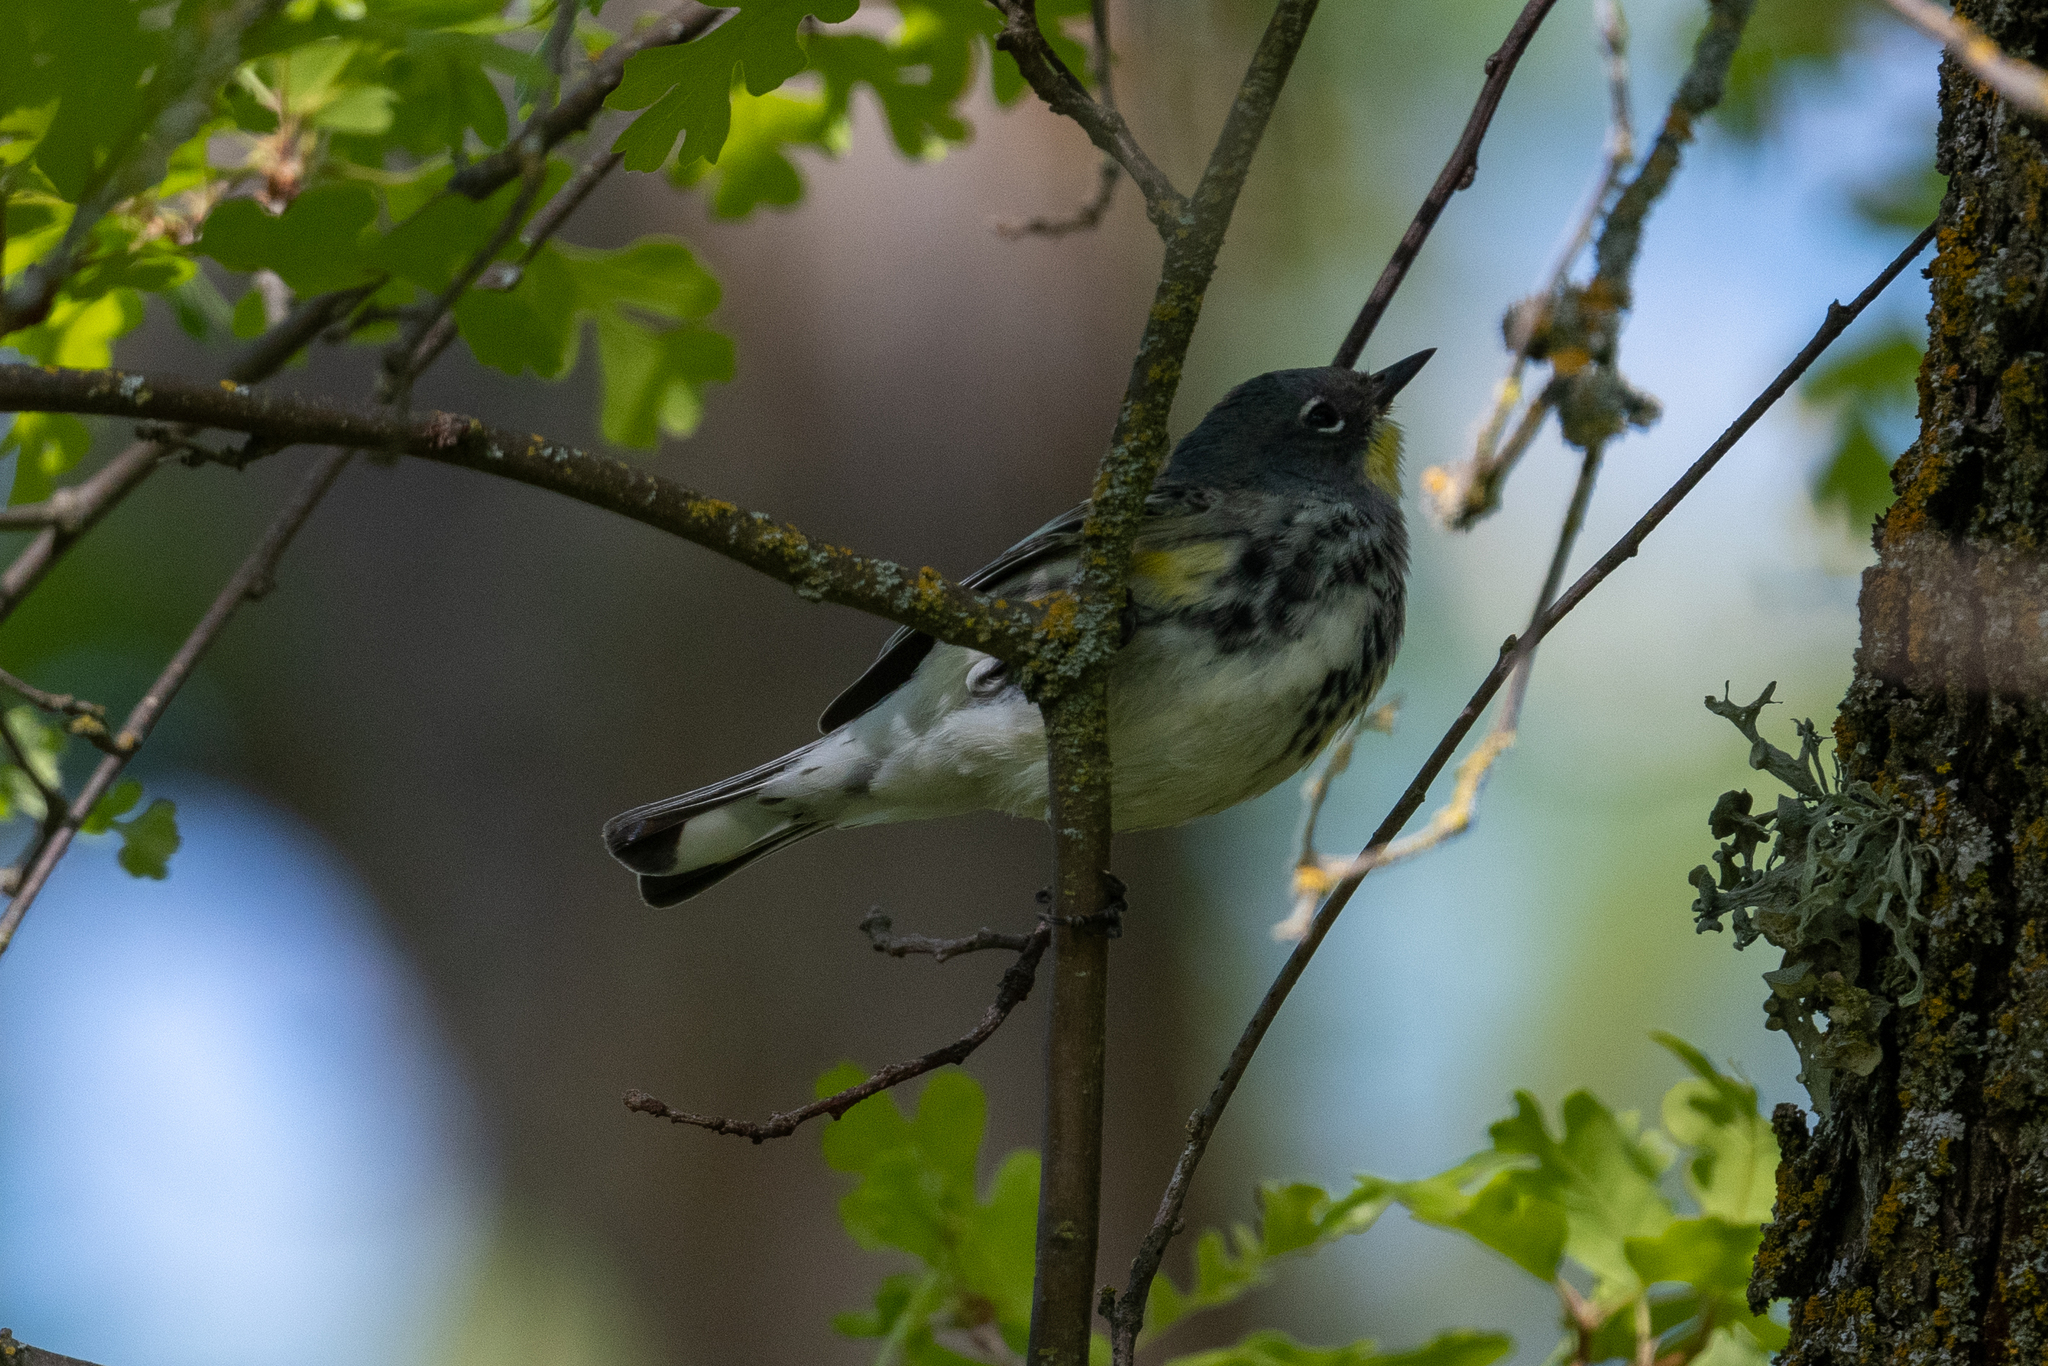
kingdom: Animalia
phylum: Chordata
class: Aves
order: Passeriformes
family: Parulidae
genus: Setophaga
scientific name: Setophaga coronata
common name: Myrtle warbler
